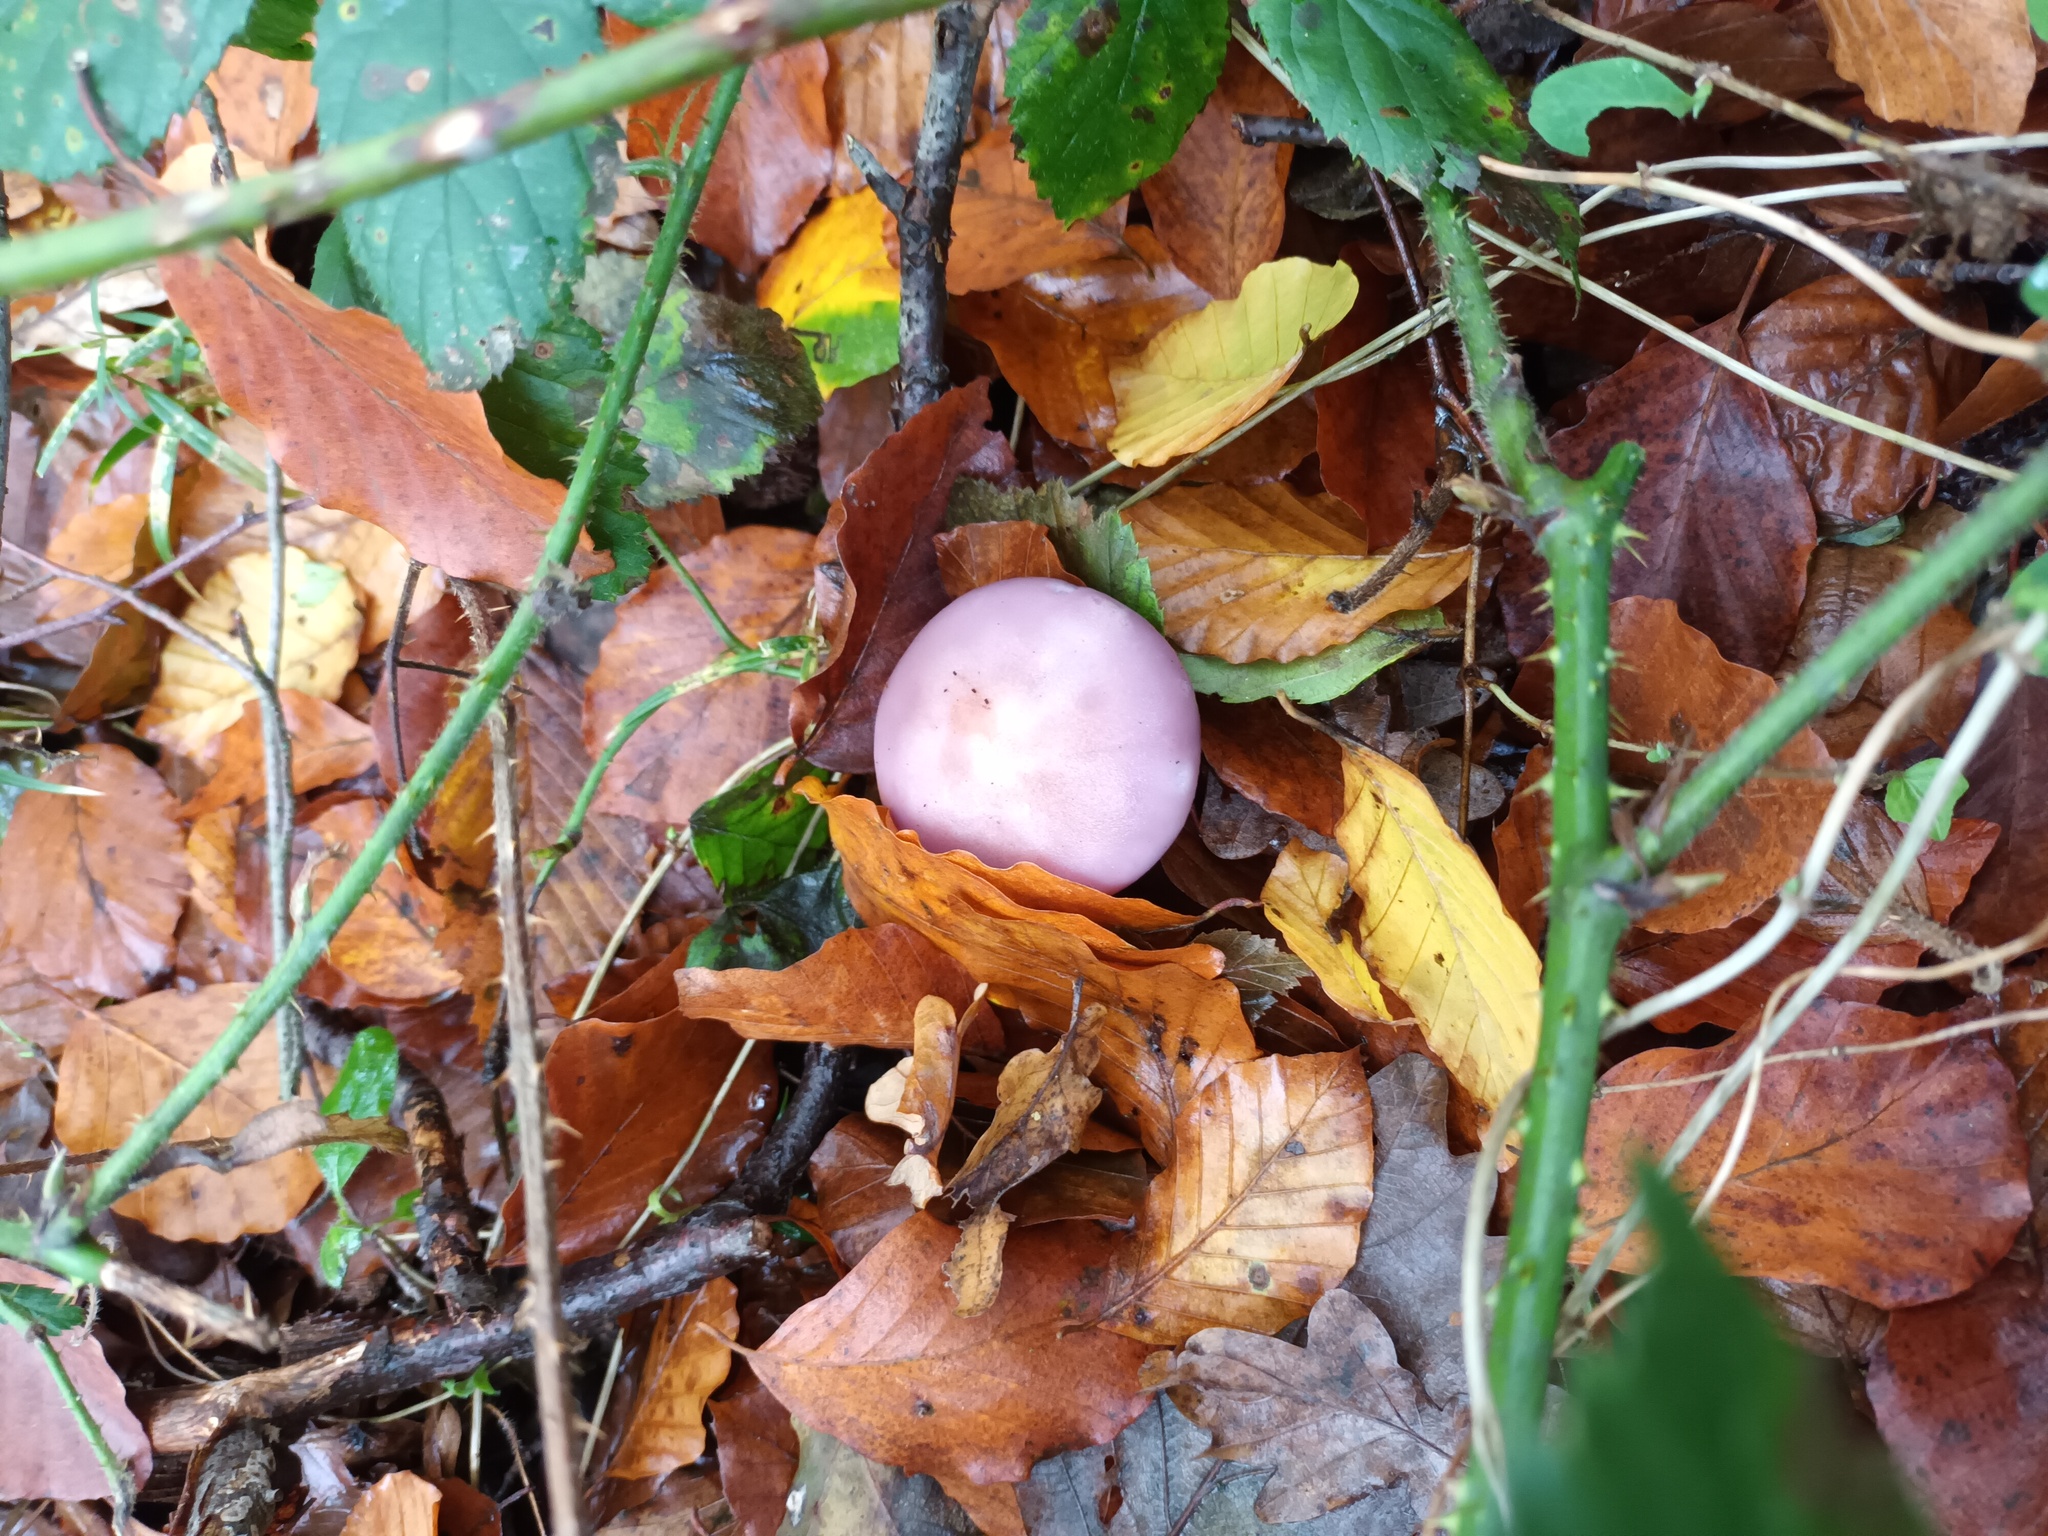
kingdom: Fungi
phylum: Basidiomycota
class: Agaricomycetes
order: Agaricales
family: Tricholomataceae
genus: Collybia
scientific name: Collybia
